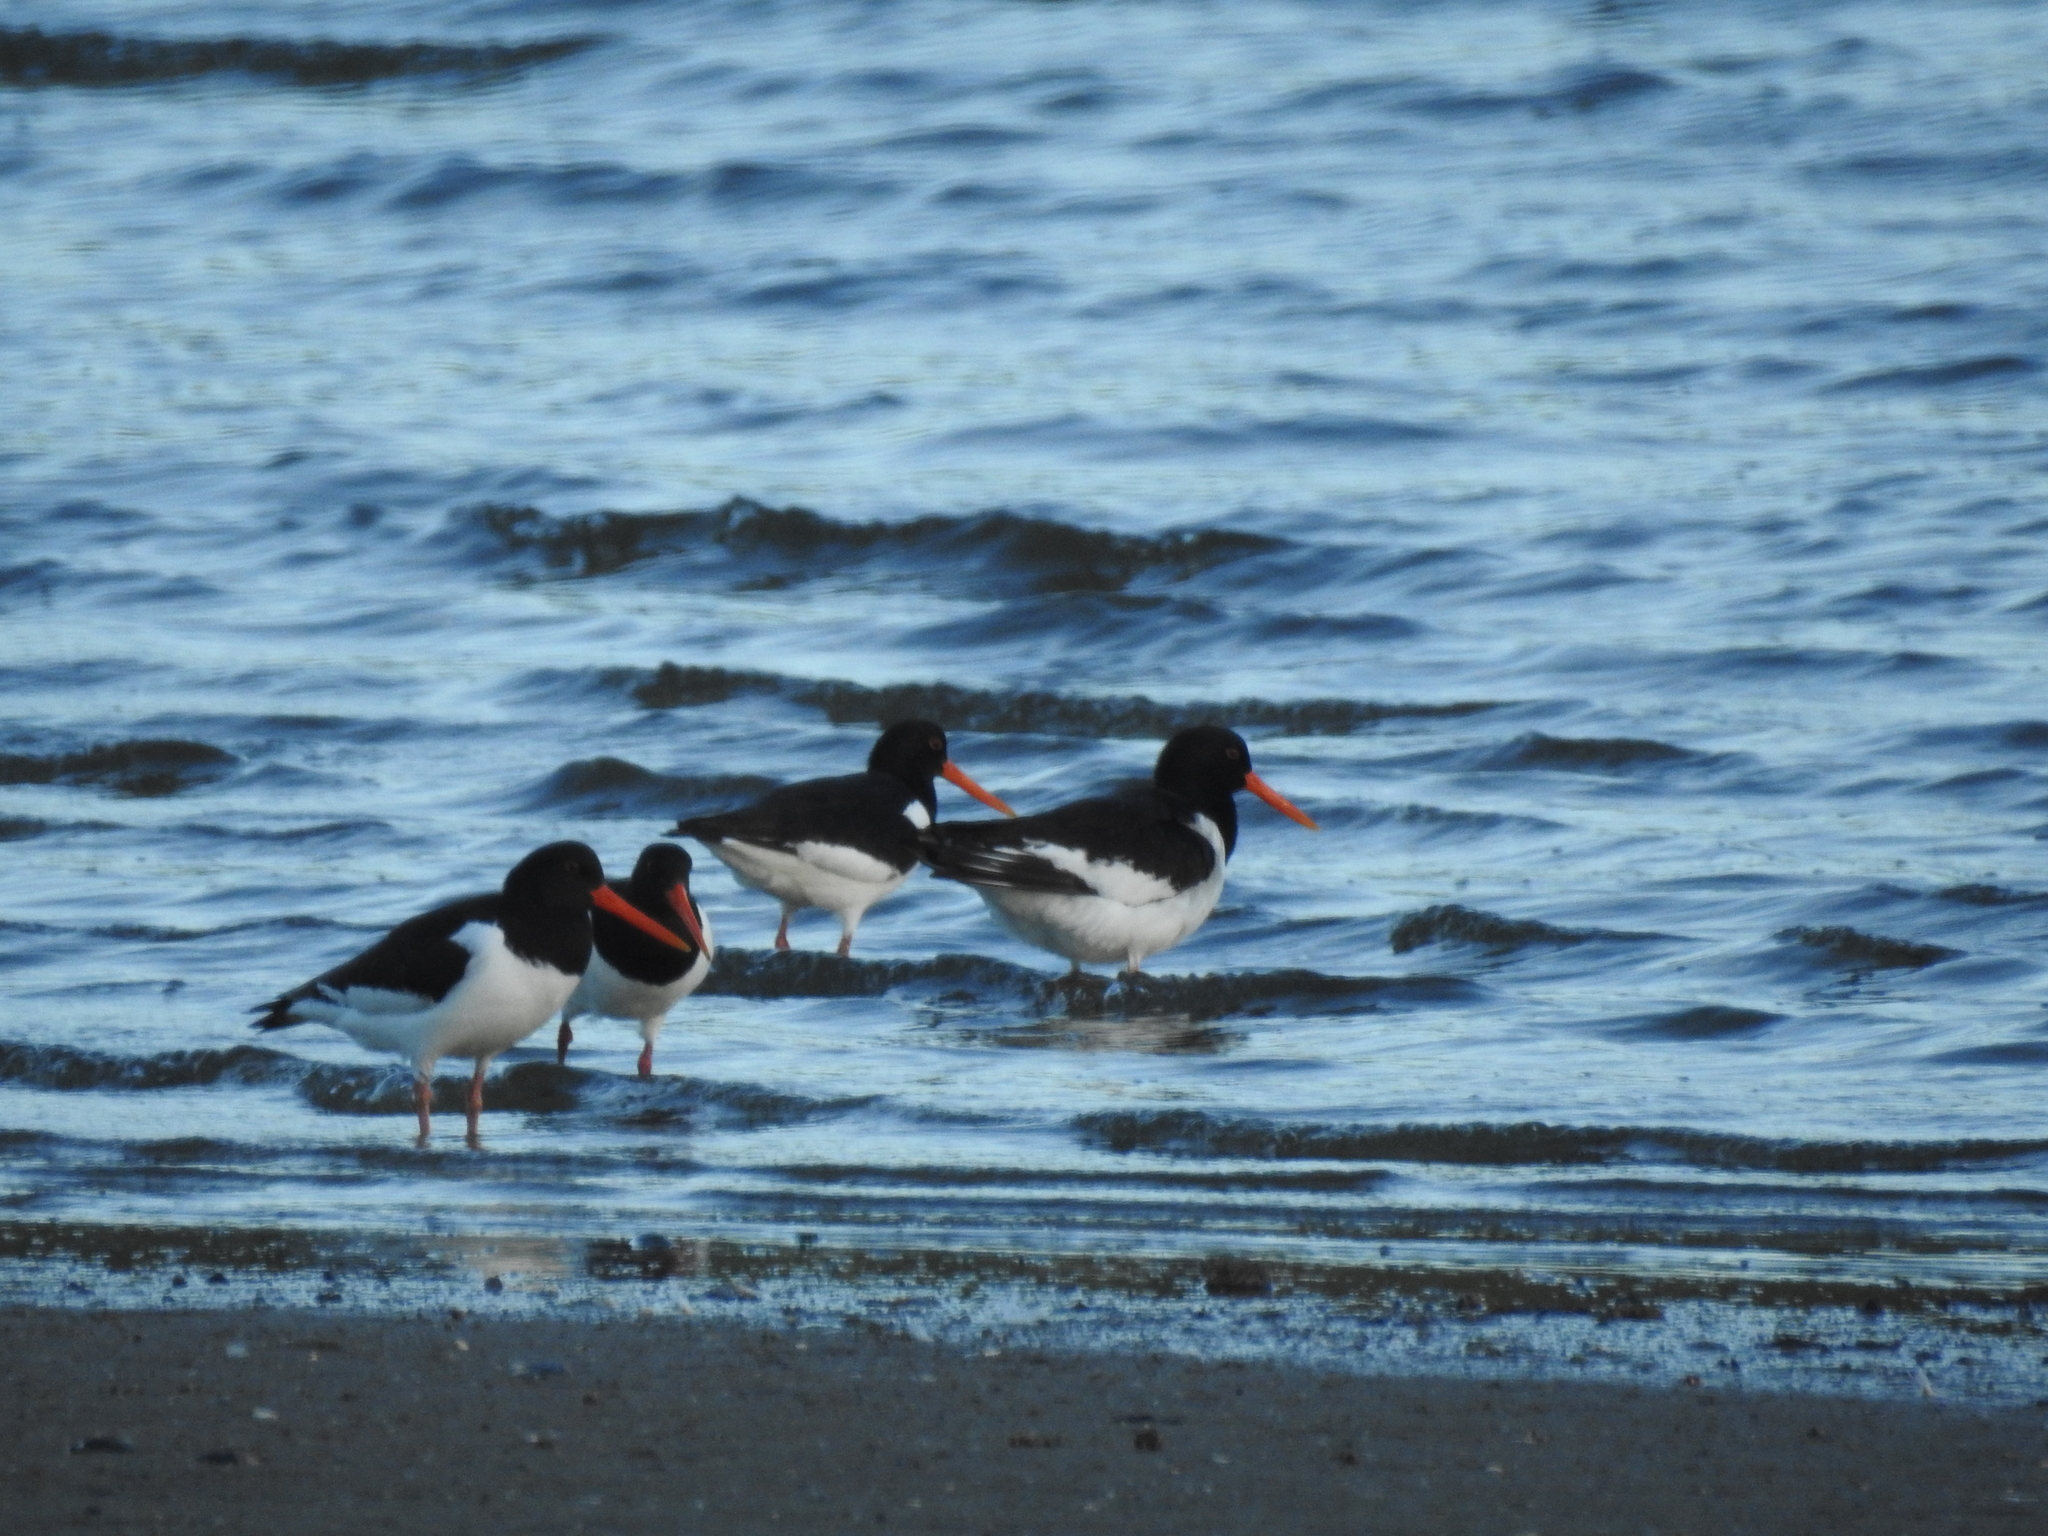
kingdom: Animalia
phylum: Chordata
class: Aves
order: Charadriiformes
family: Haematopodidae
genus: Haematopus
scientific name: Haematopus ostralegus
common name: Eurasian oystercatcher
